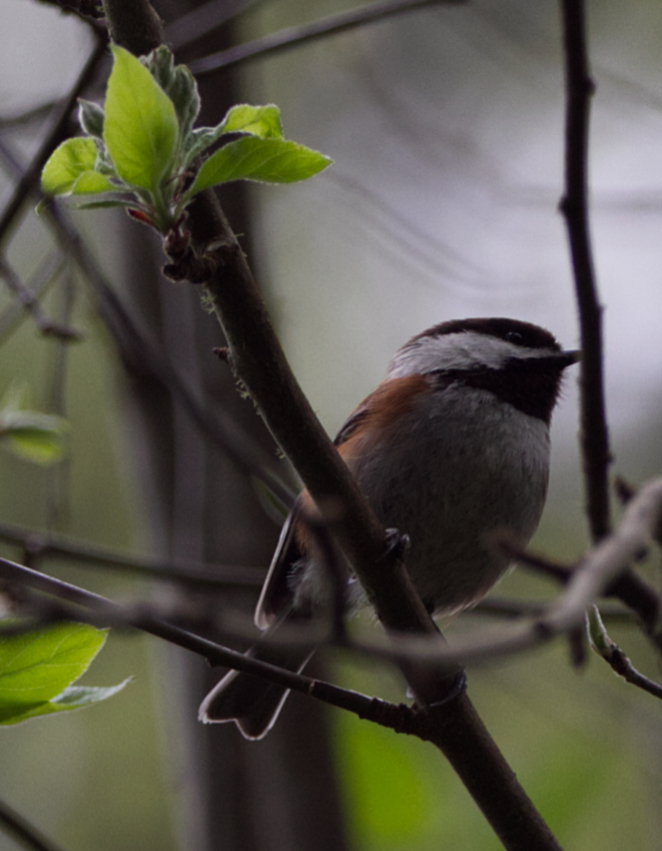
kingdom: Animalia
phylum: Chordata
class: Aves
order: Passeriformes
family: Paridae
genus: Poecile
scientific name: Poecile rufescens
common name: Chestnut-backed chickadee
